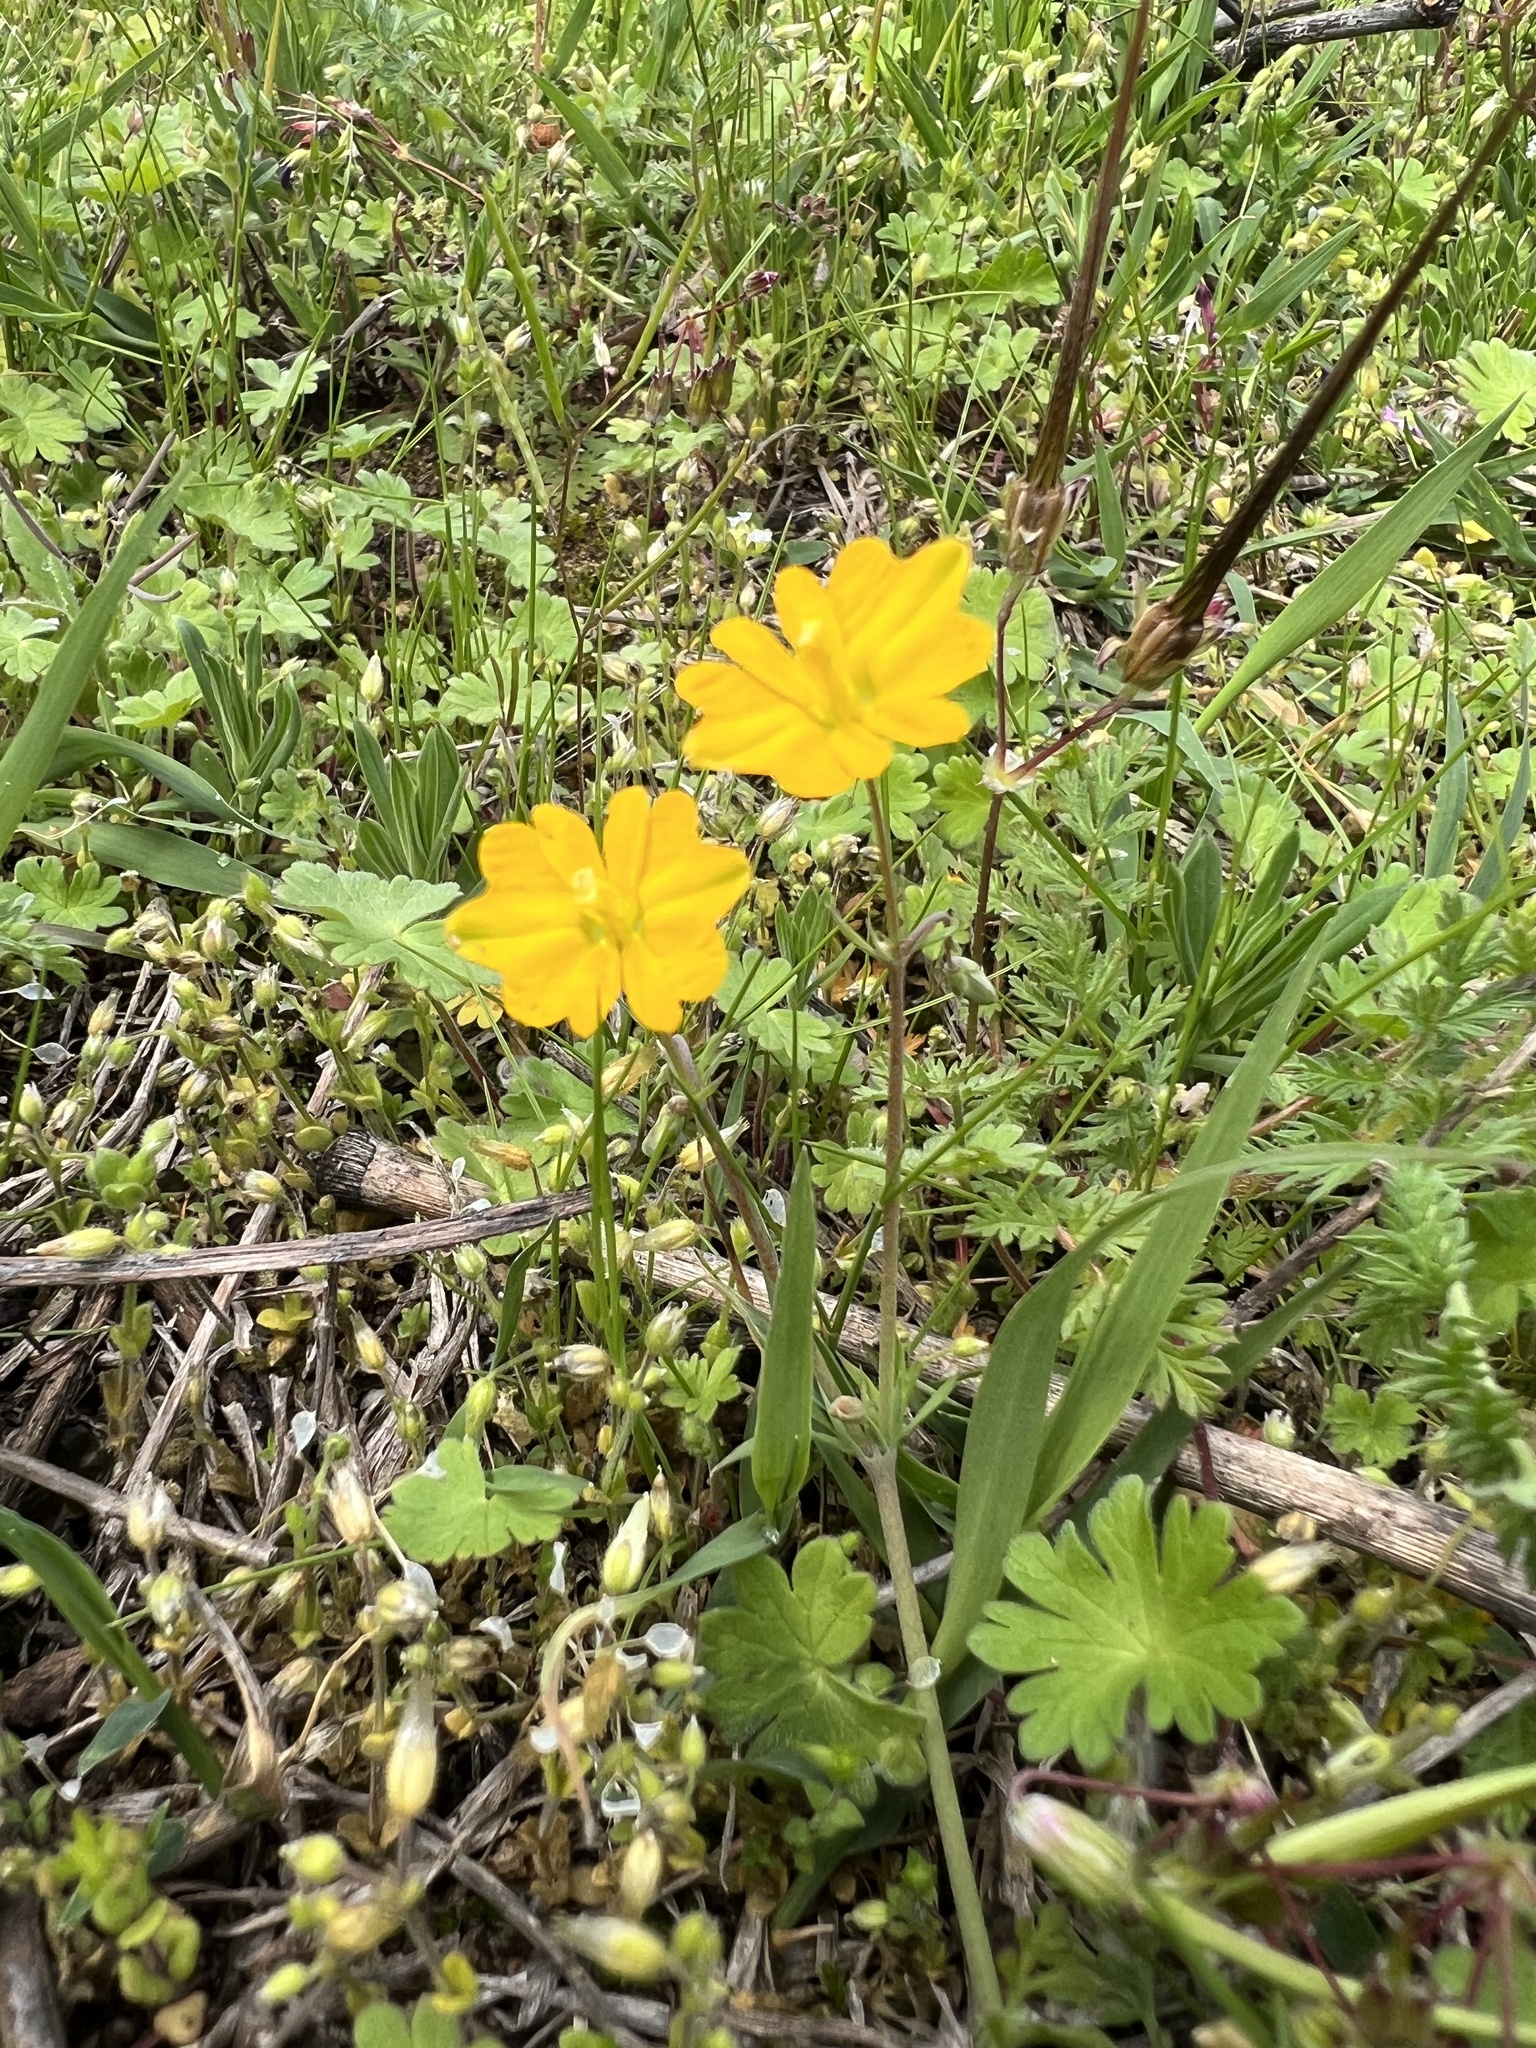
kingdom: Plantae
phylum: Tracheophyta
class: Magnoliopsida
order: Ranunculales
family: Papaveraceae
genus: Hypecoum
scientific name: Hypecoum imberbe
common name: Sicklefruit hypecoum
